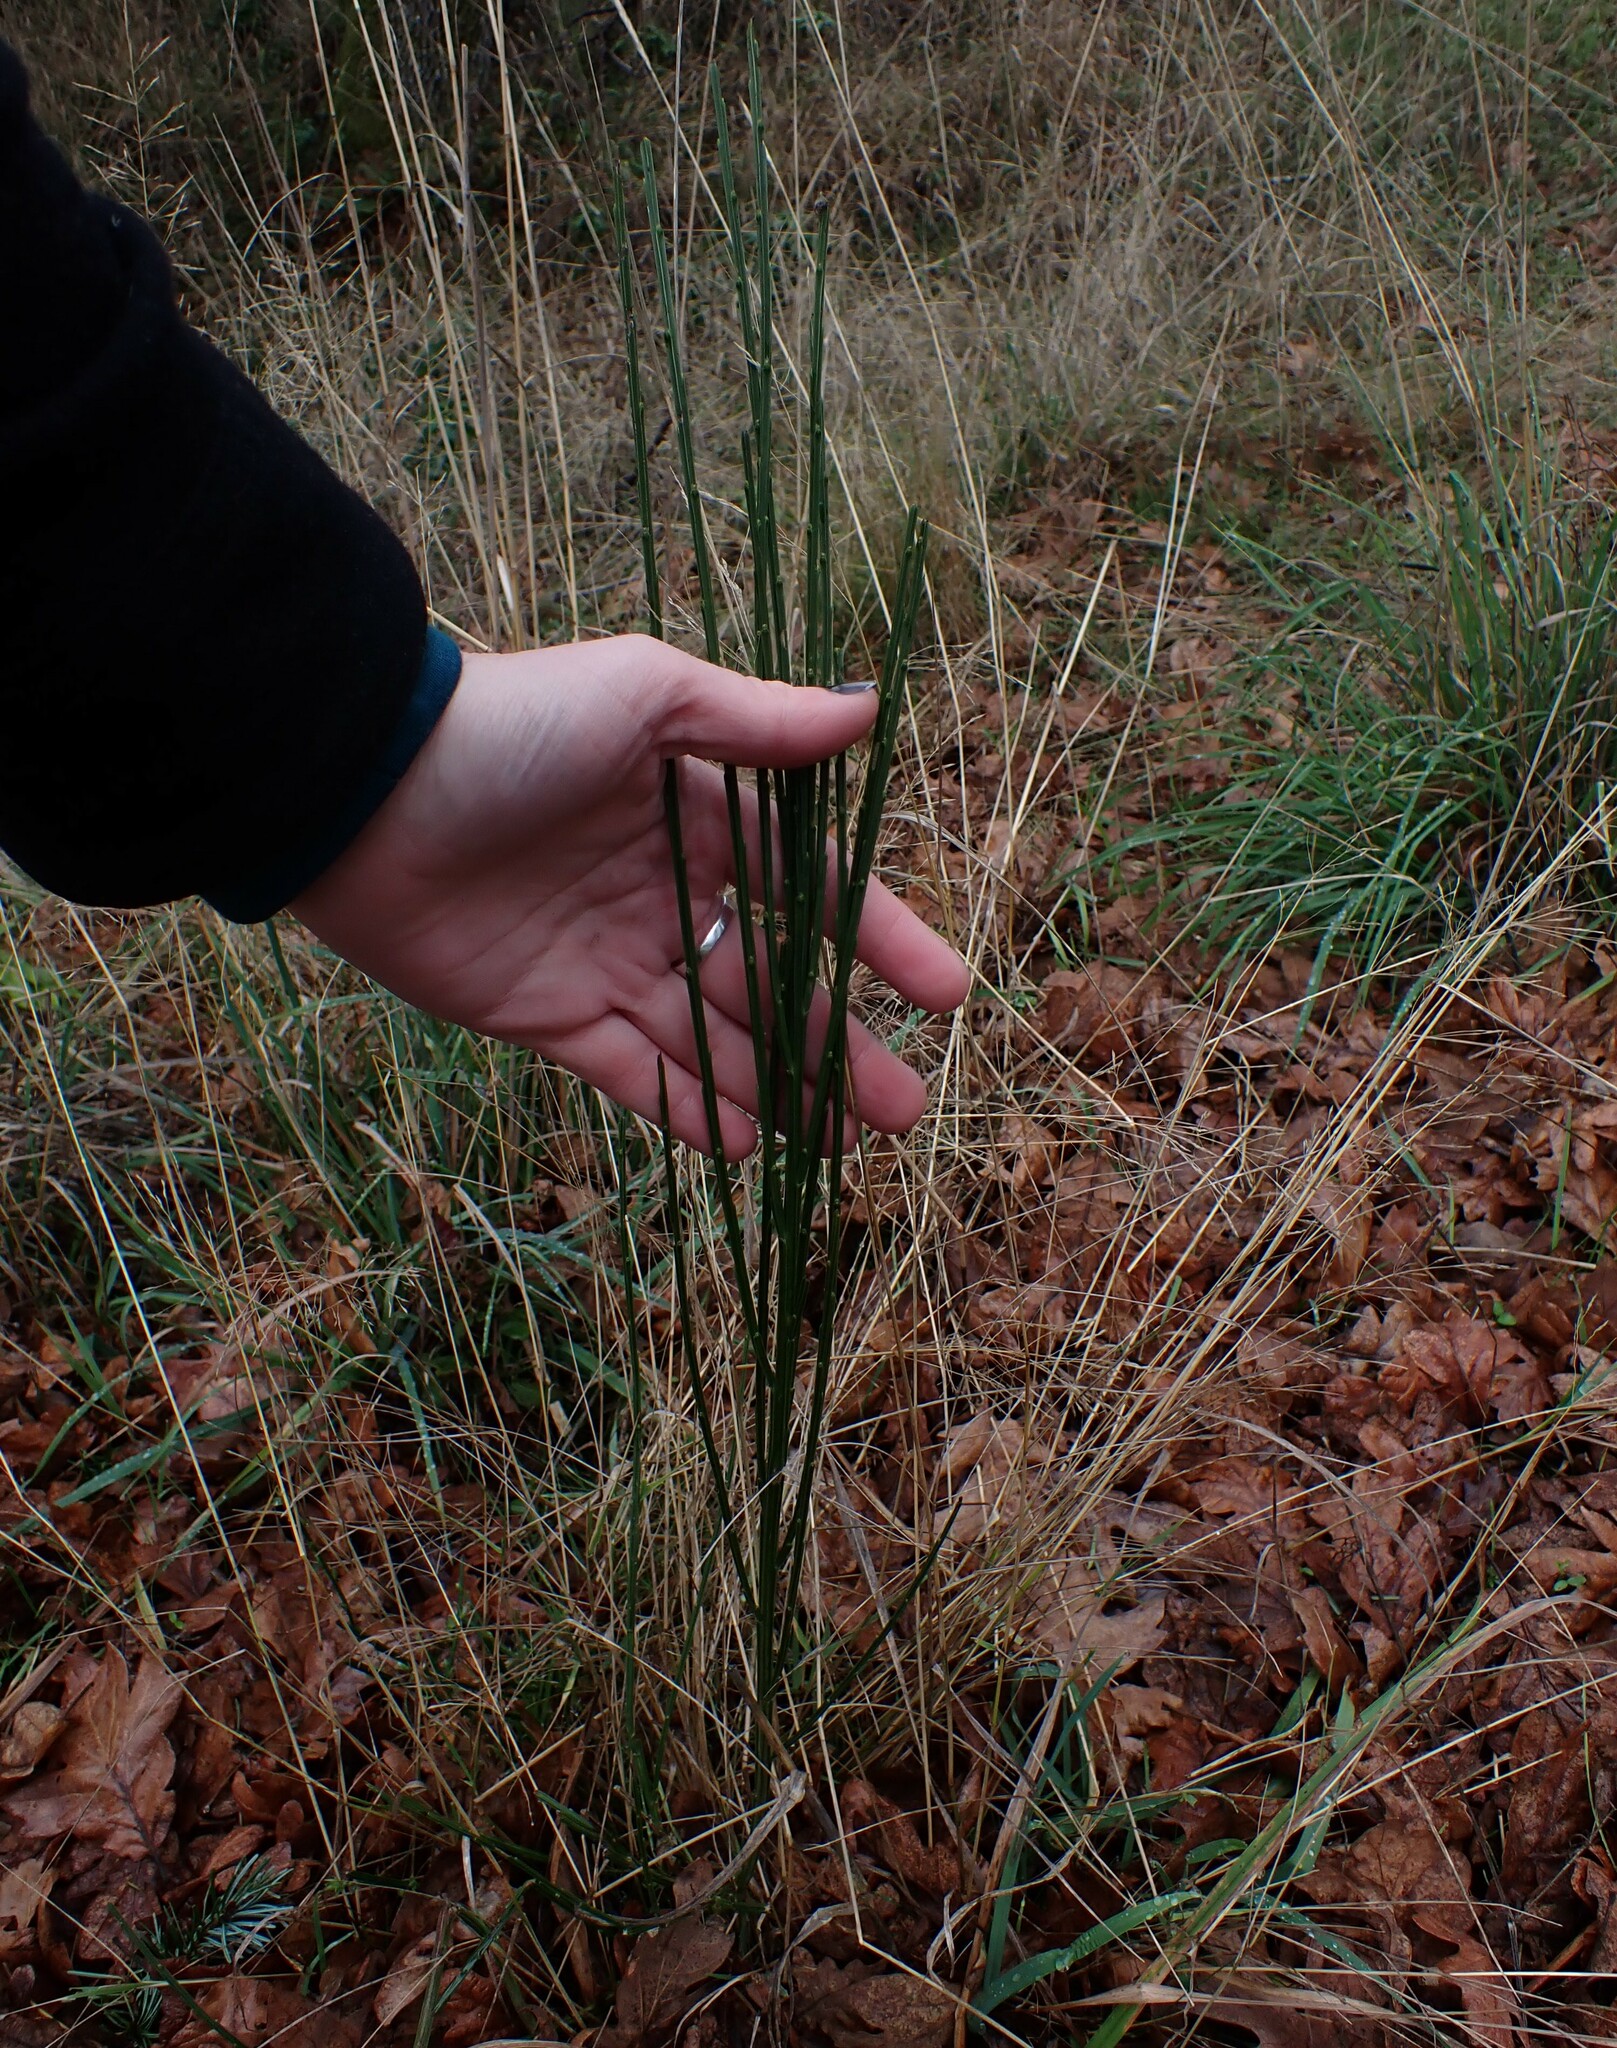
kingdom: Plantae
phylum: Tracheophyta
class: Magnoliopsida
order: Fabales
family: Fabaceae
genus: Cytisus
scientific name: Cytisus scoparius
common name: Scotch broom
